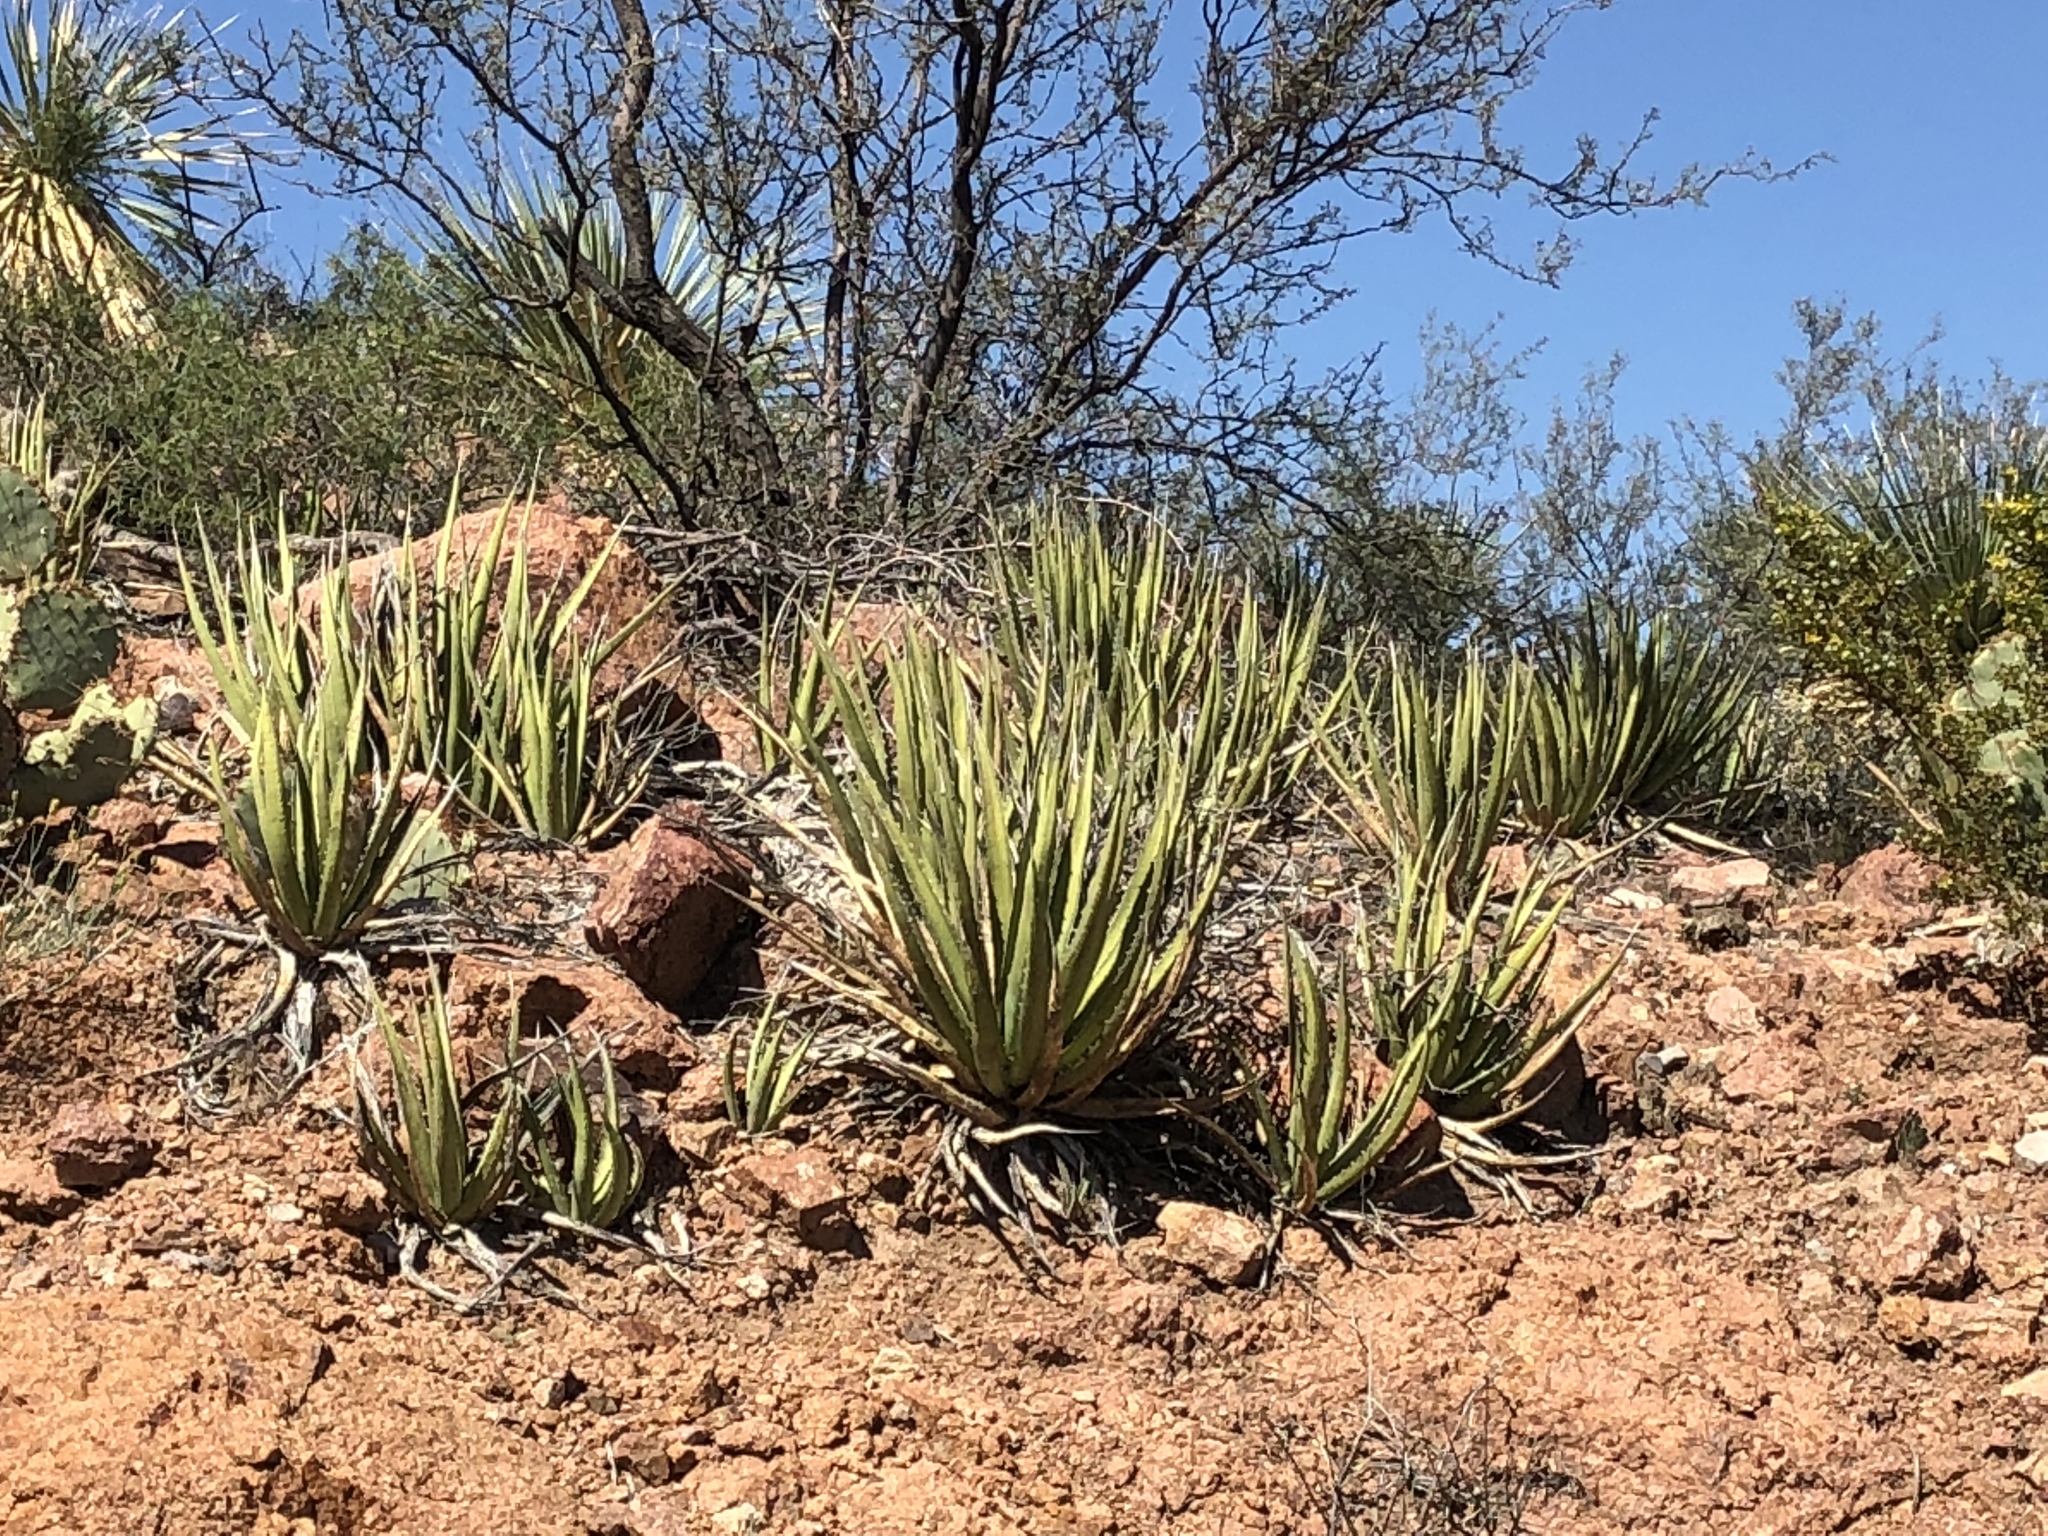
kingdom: Plantae
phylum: Tracheophyta
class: Liliopsida
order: Asparagales
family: Asparagaceae
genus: Agave
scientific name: Agave lechuguilla
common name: Lecheguilla agave
